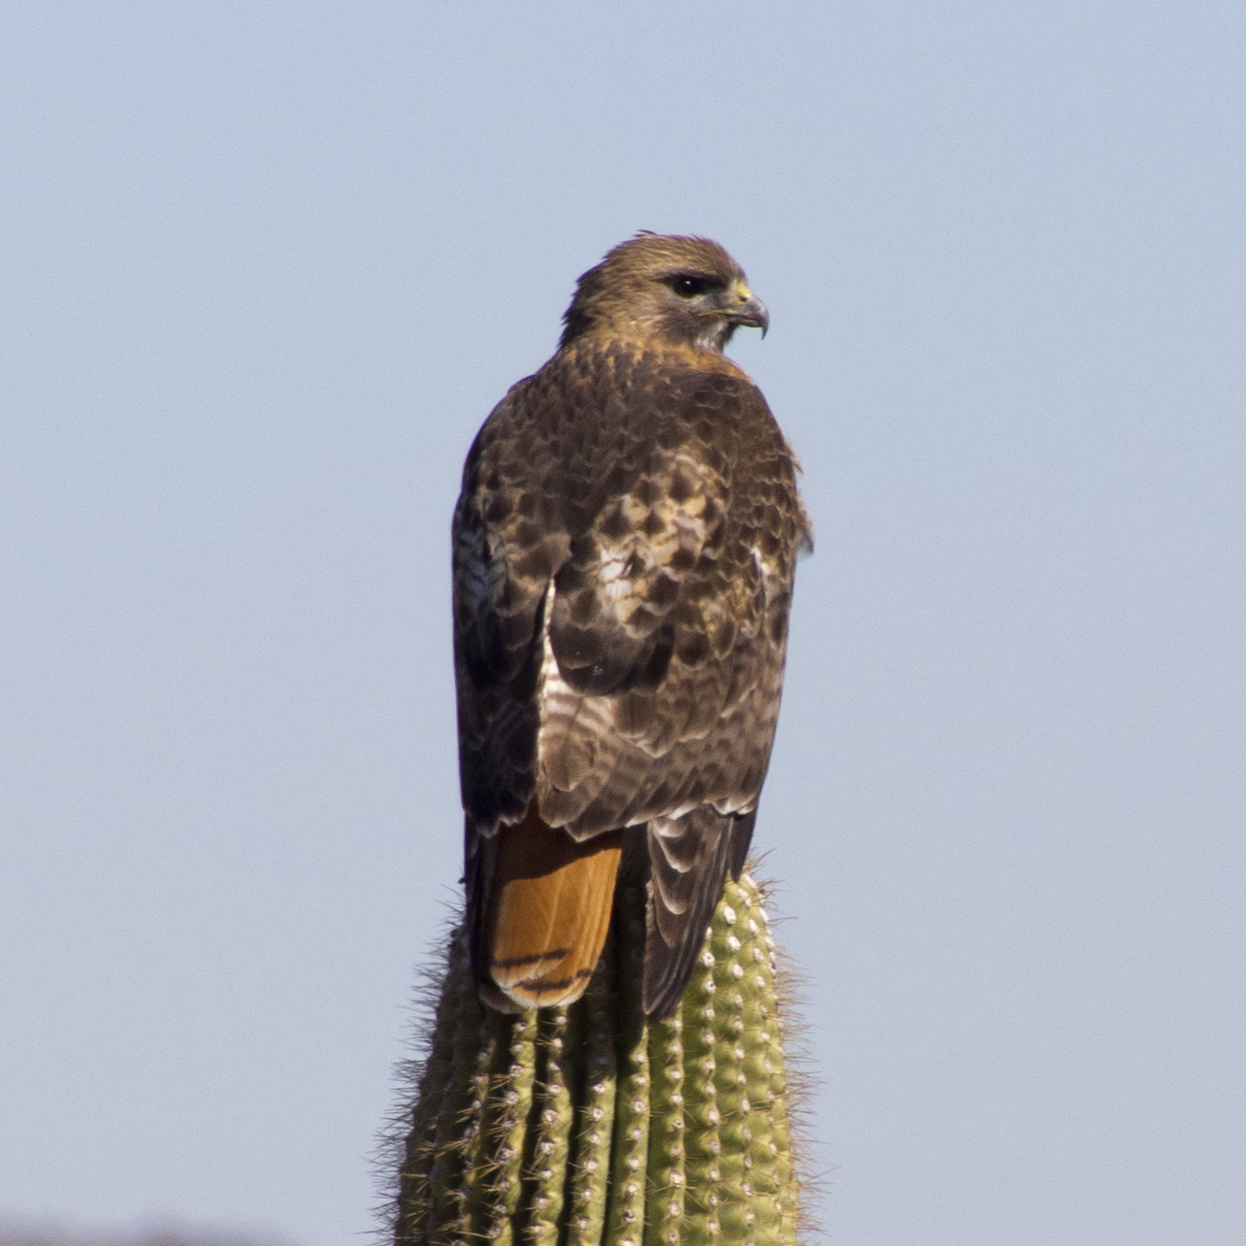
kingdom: Animalia
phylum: Chordata
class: Aves
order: Accipitriformes
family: Accipitridae
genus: Buteo
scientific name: Buteo jamaicensis
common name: Red-tailed hawk
